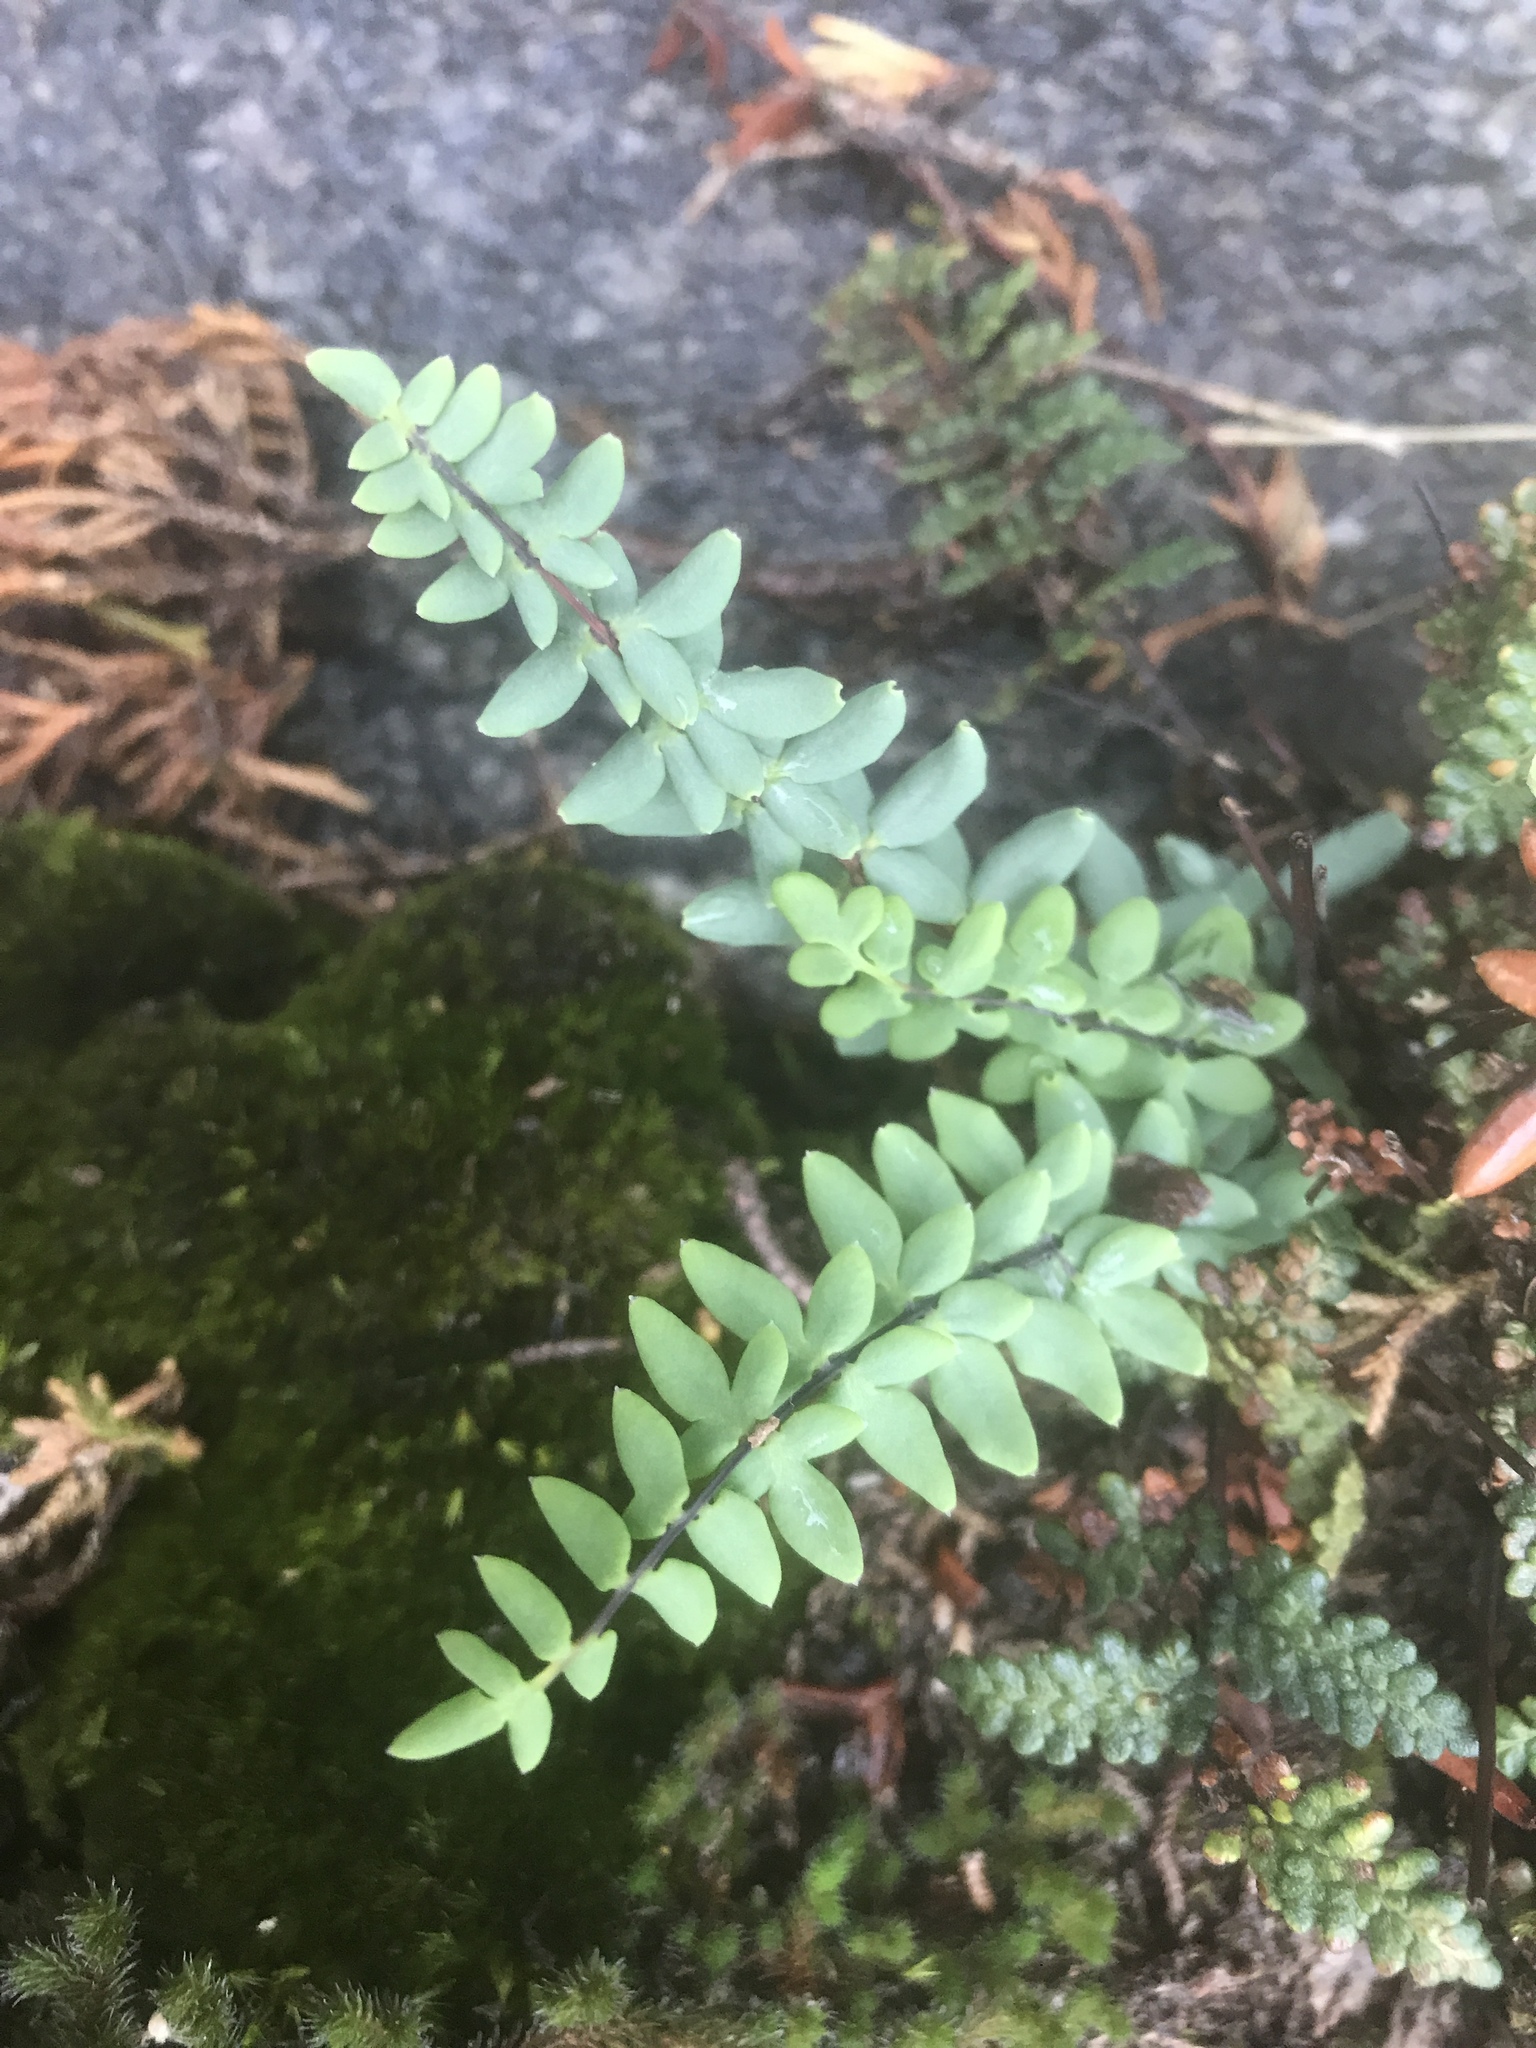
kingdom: Plantae
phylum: Tracheophyta
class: Polypodiopsida
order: Polypodiales
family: Pteridaceae
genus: Pellaea
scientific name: Pellaea wrightiana
